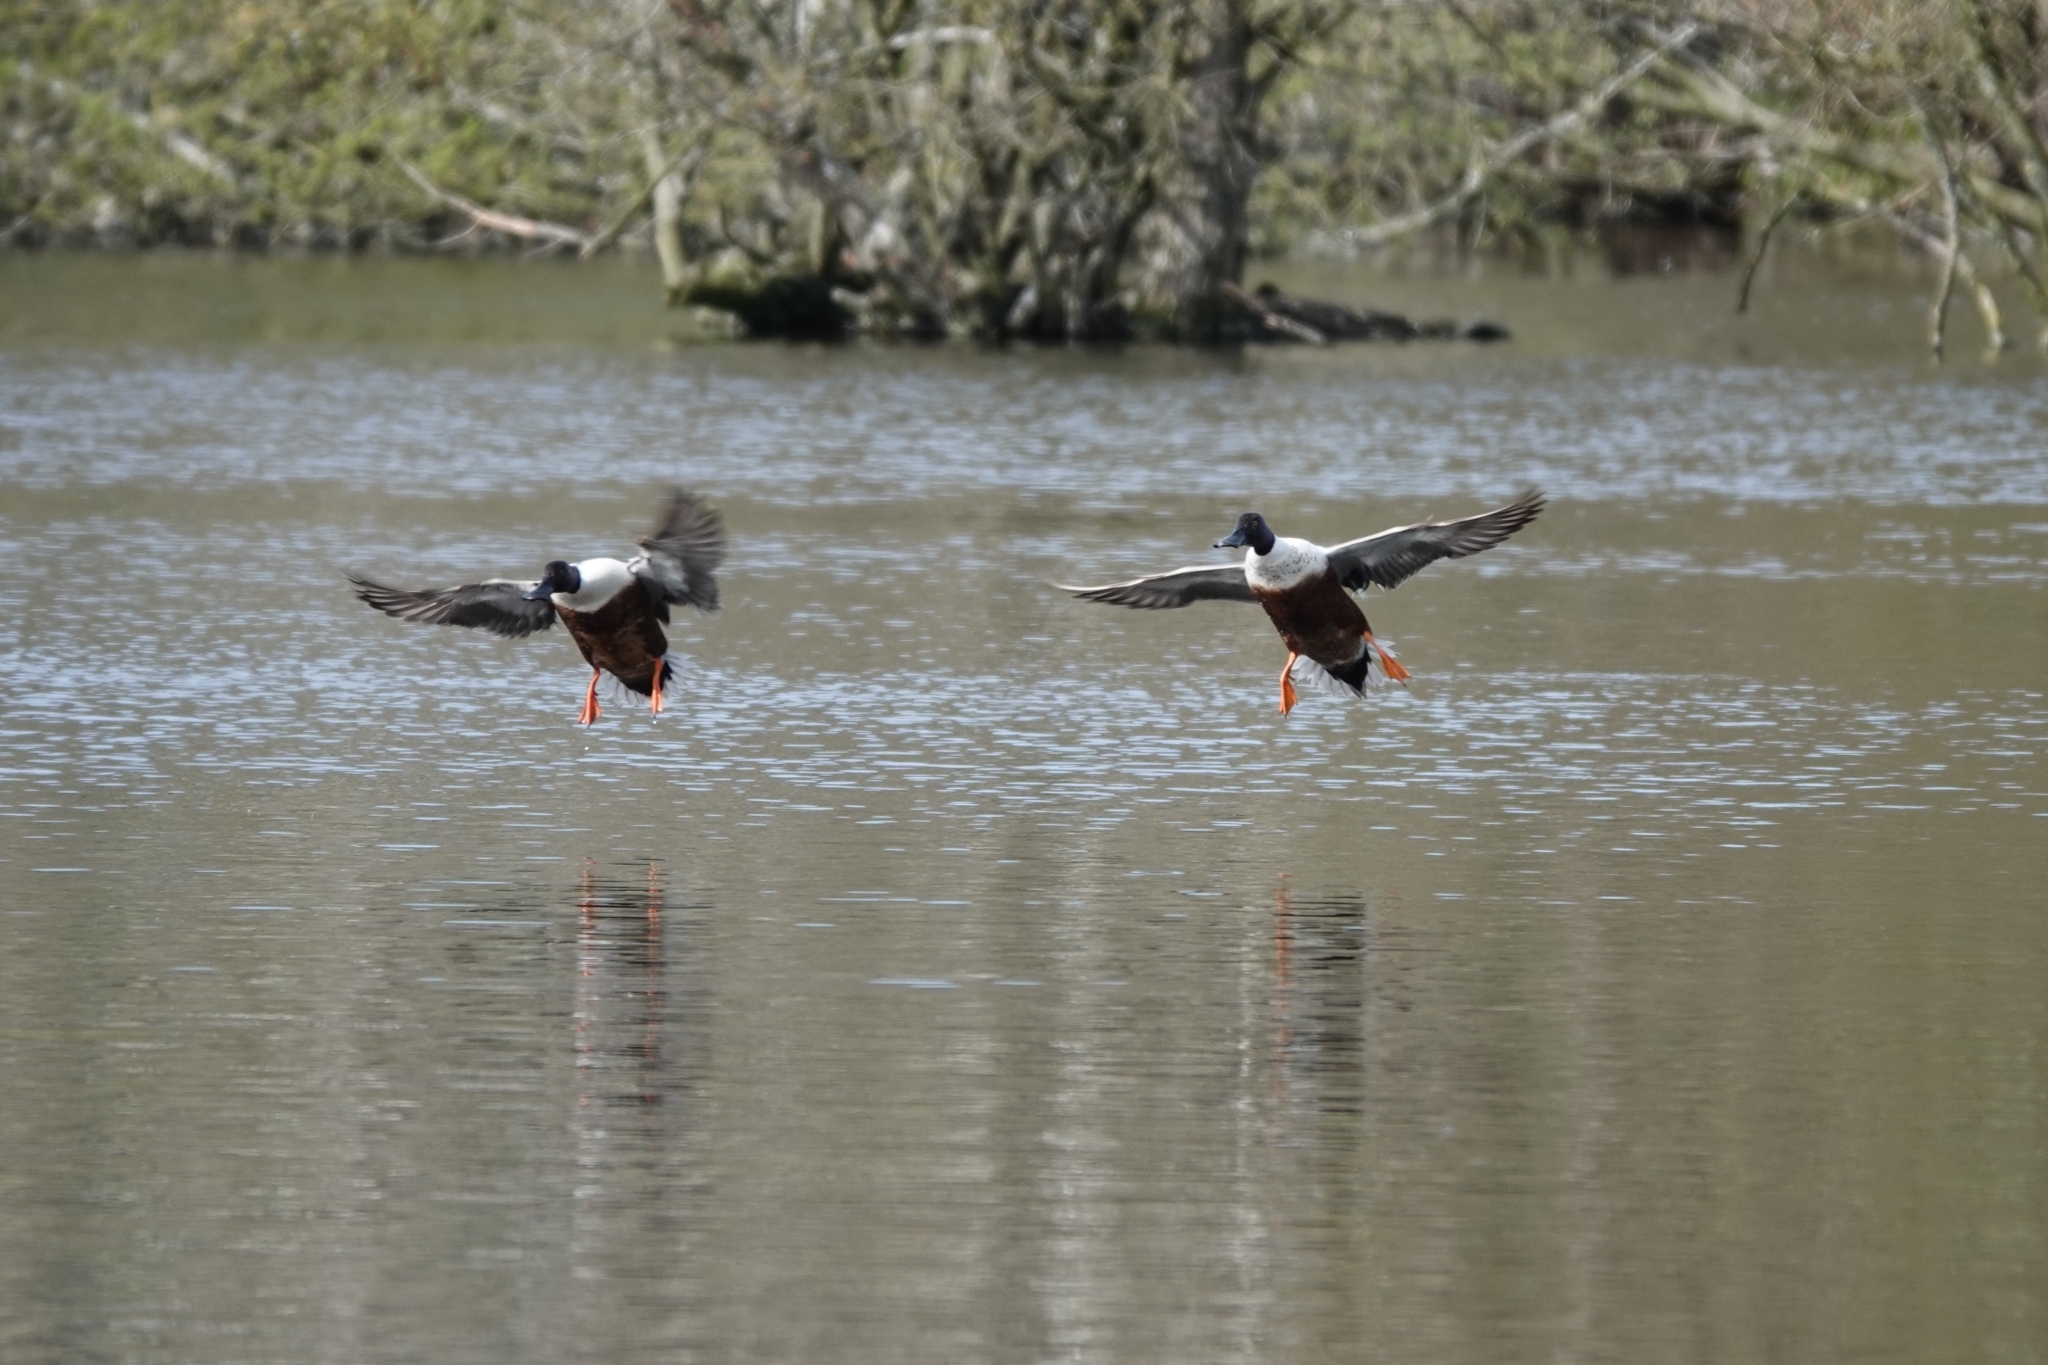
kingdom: Animalia
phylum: Chordata
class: Aves
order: Anseriformes
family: Anatidae
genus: Spatula
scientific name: Spatula clypeata
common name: Northern shoveler
